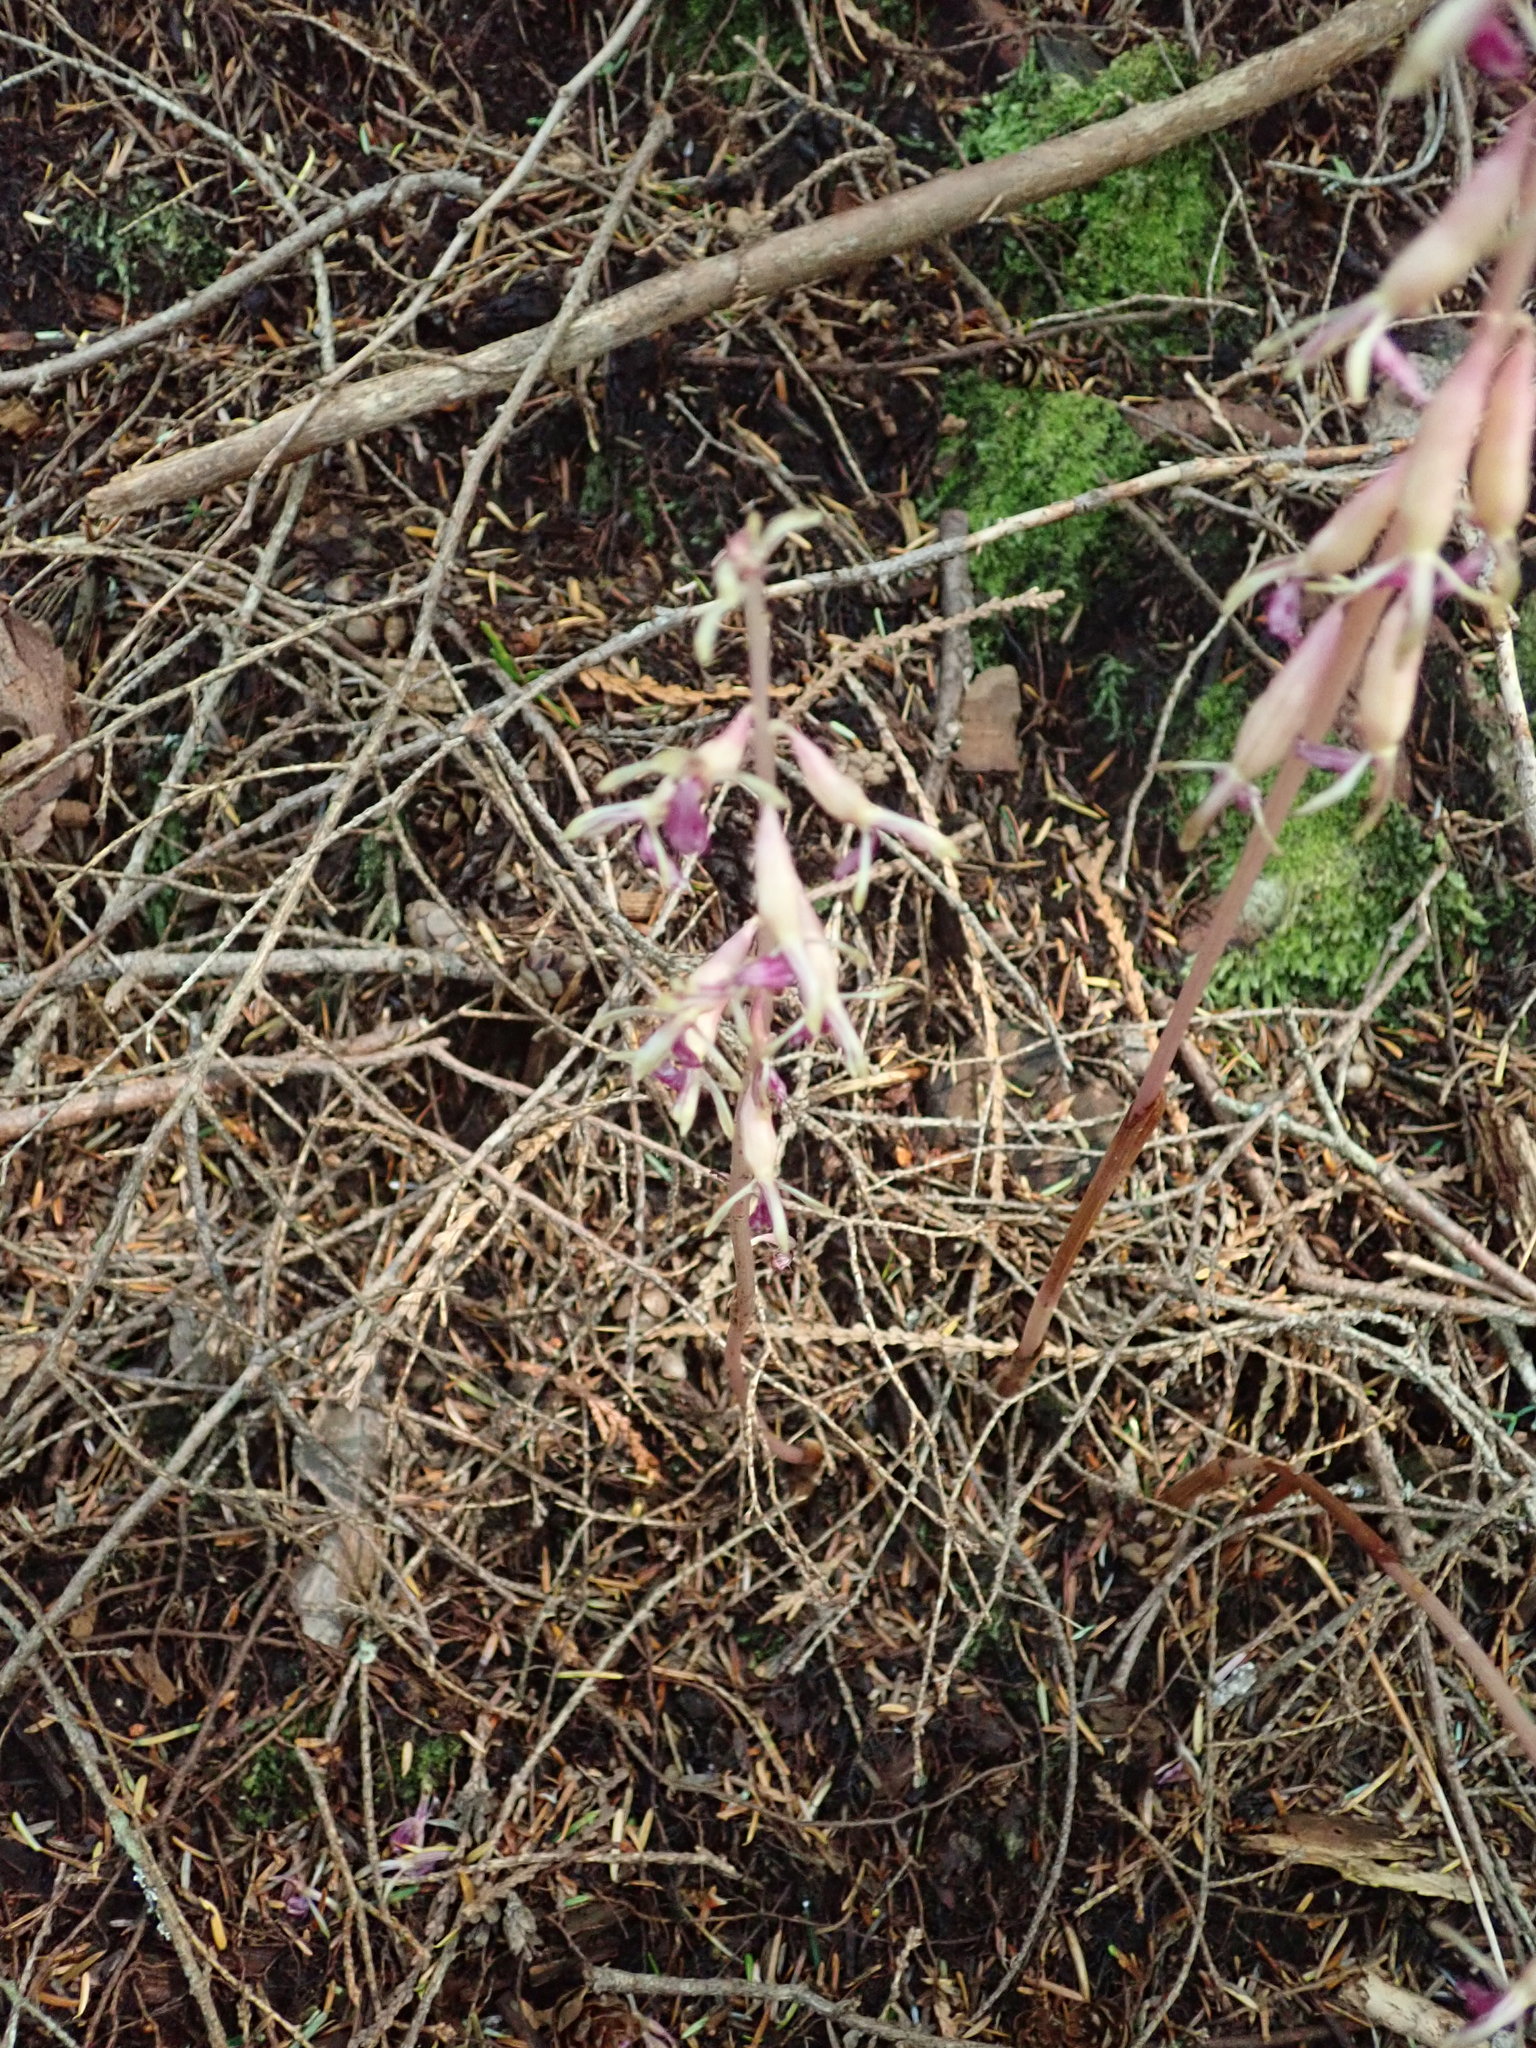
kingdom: Plantae
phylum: Tracheophyta
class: Liliopsida
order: Asparagales
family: Orchidaceae
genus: Corallorhiza
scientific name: Corallorhiza mertensiana
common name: Pacific coralroot
